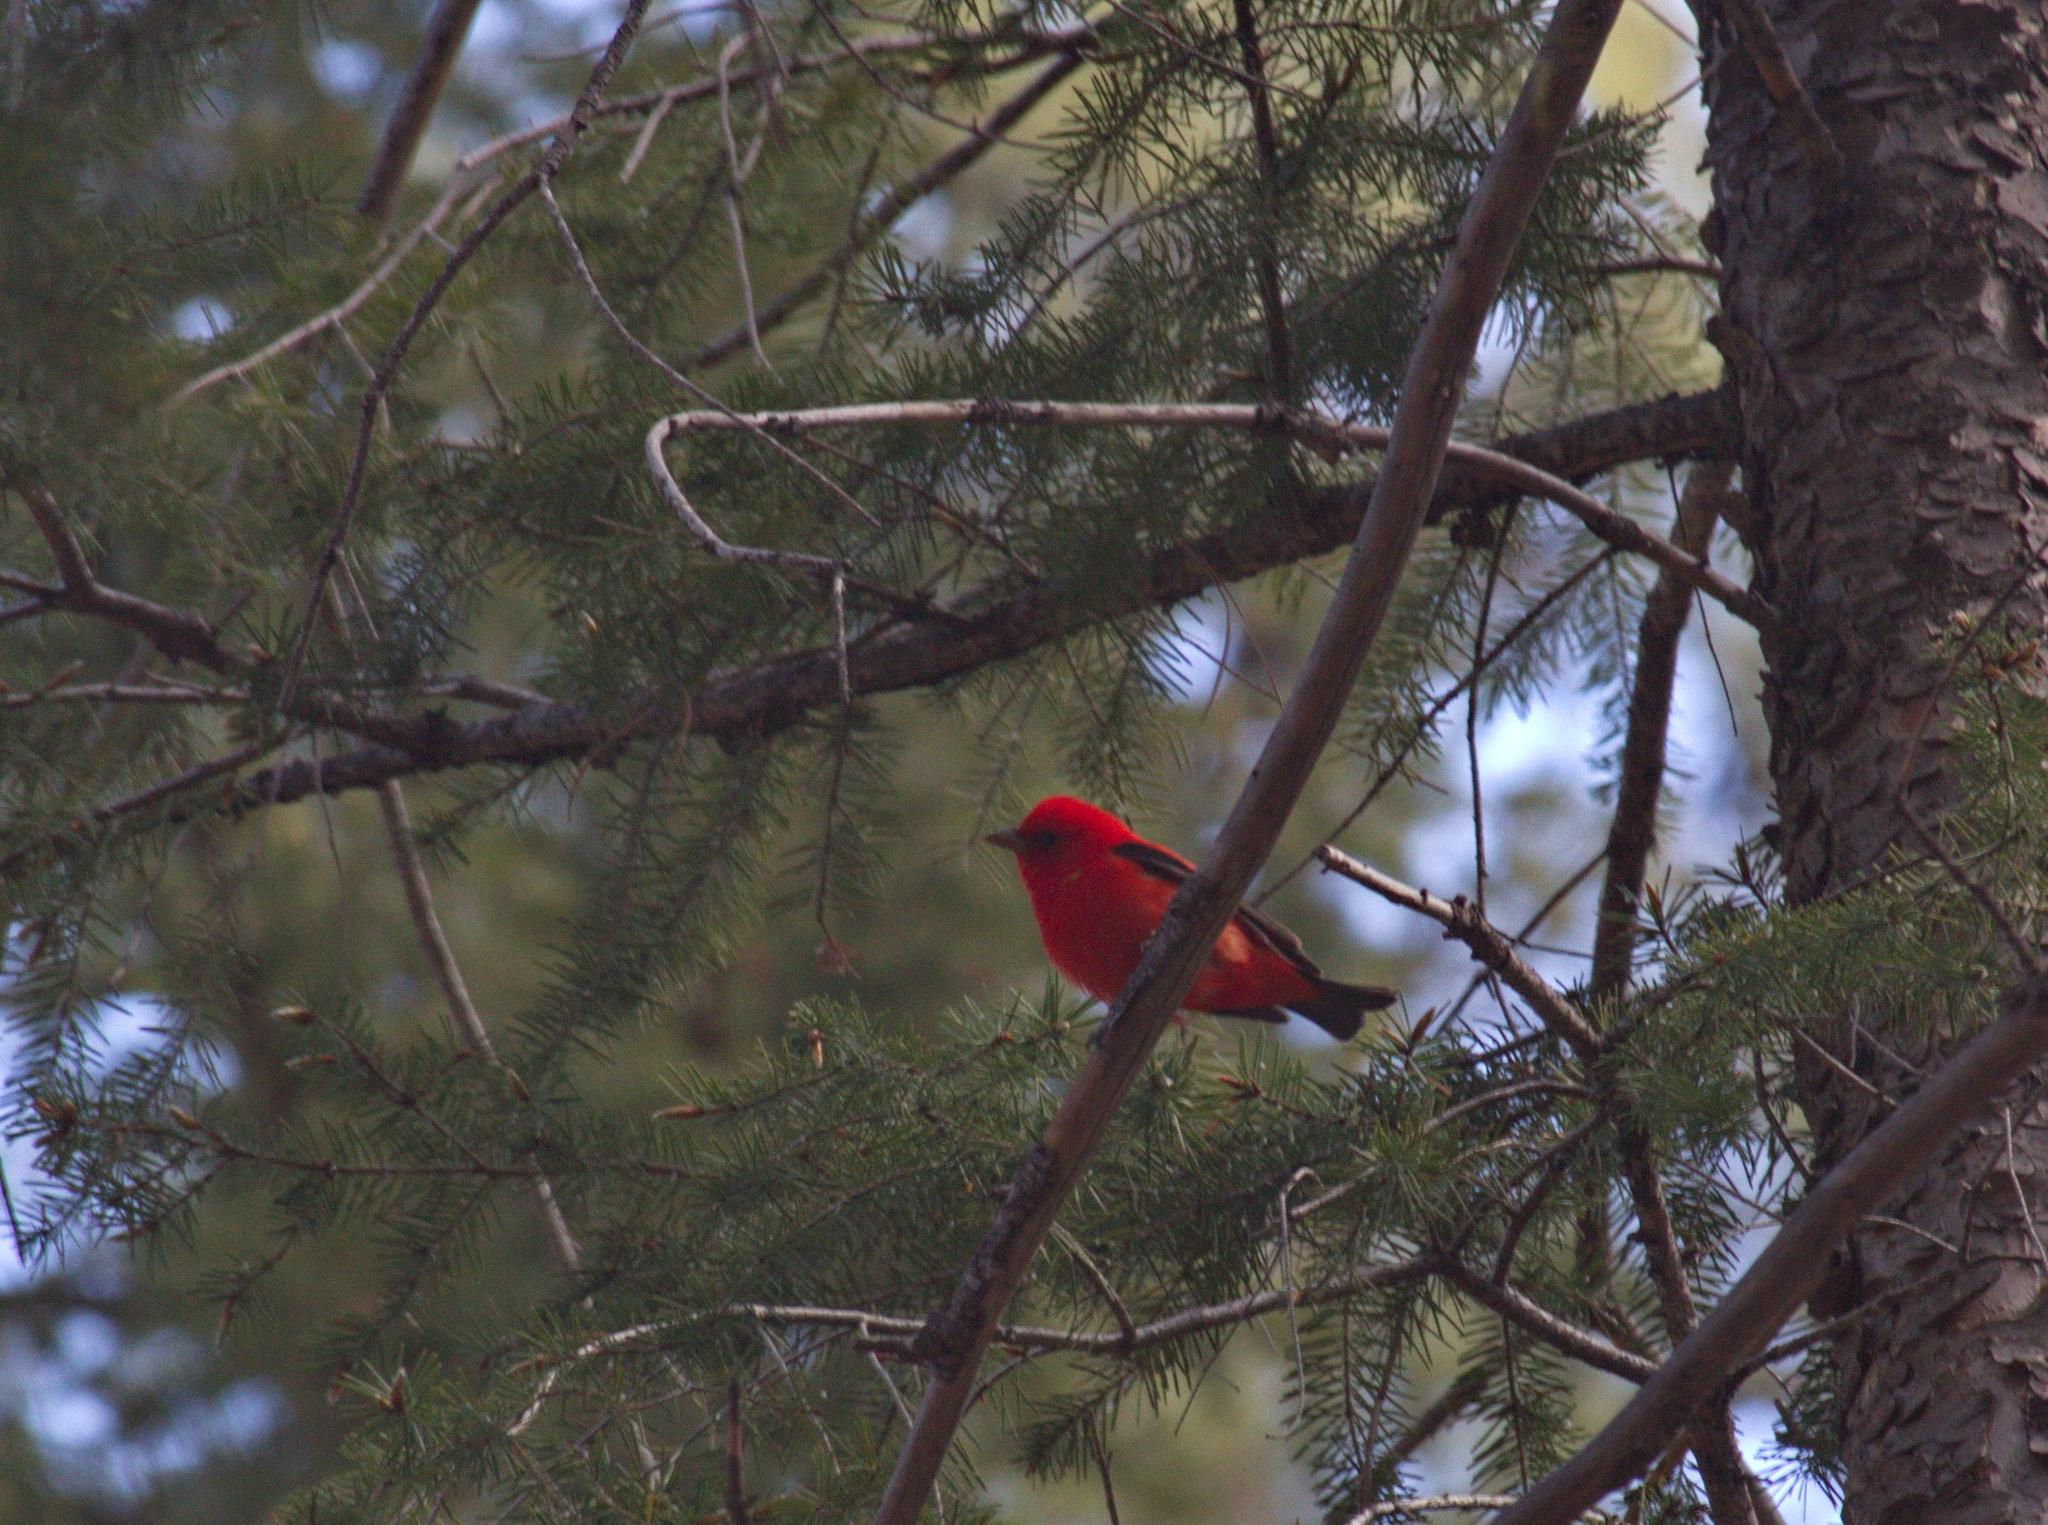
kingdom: Animalia
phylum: Chordata
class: Aves
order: Passeriformes
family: Cardinalidae
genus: Piranga
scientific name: Piranga olivacea
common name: Scarlet tanager
